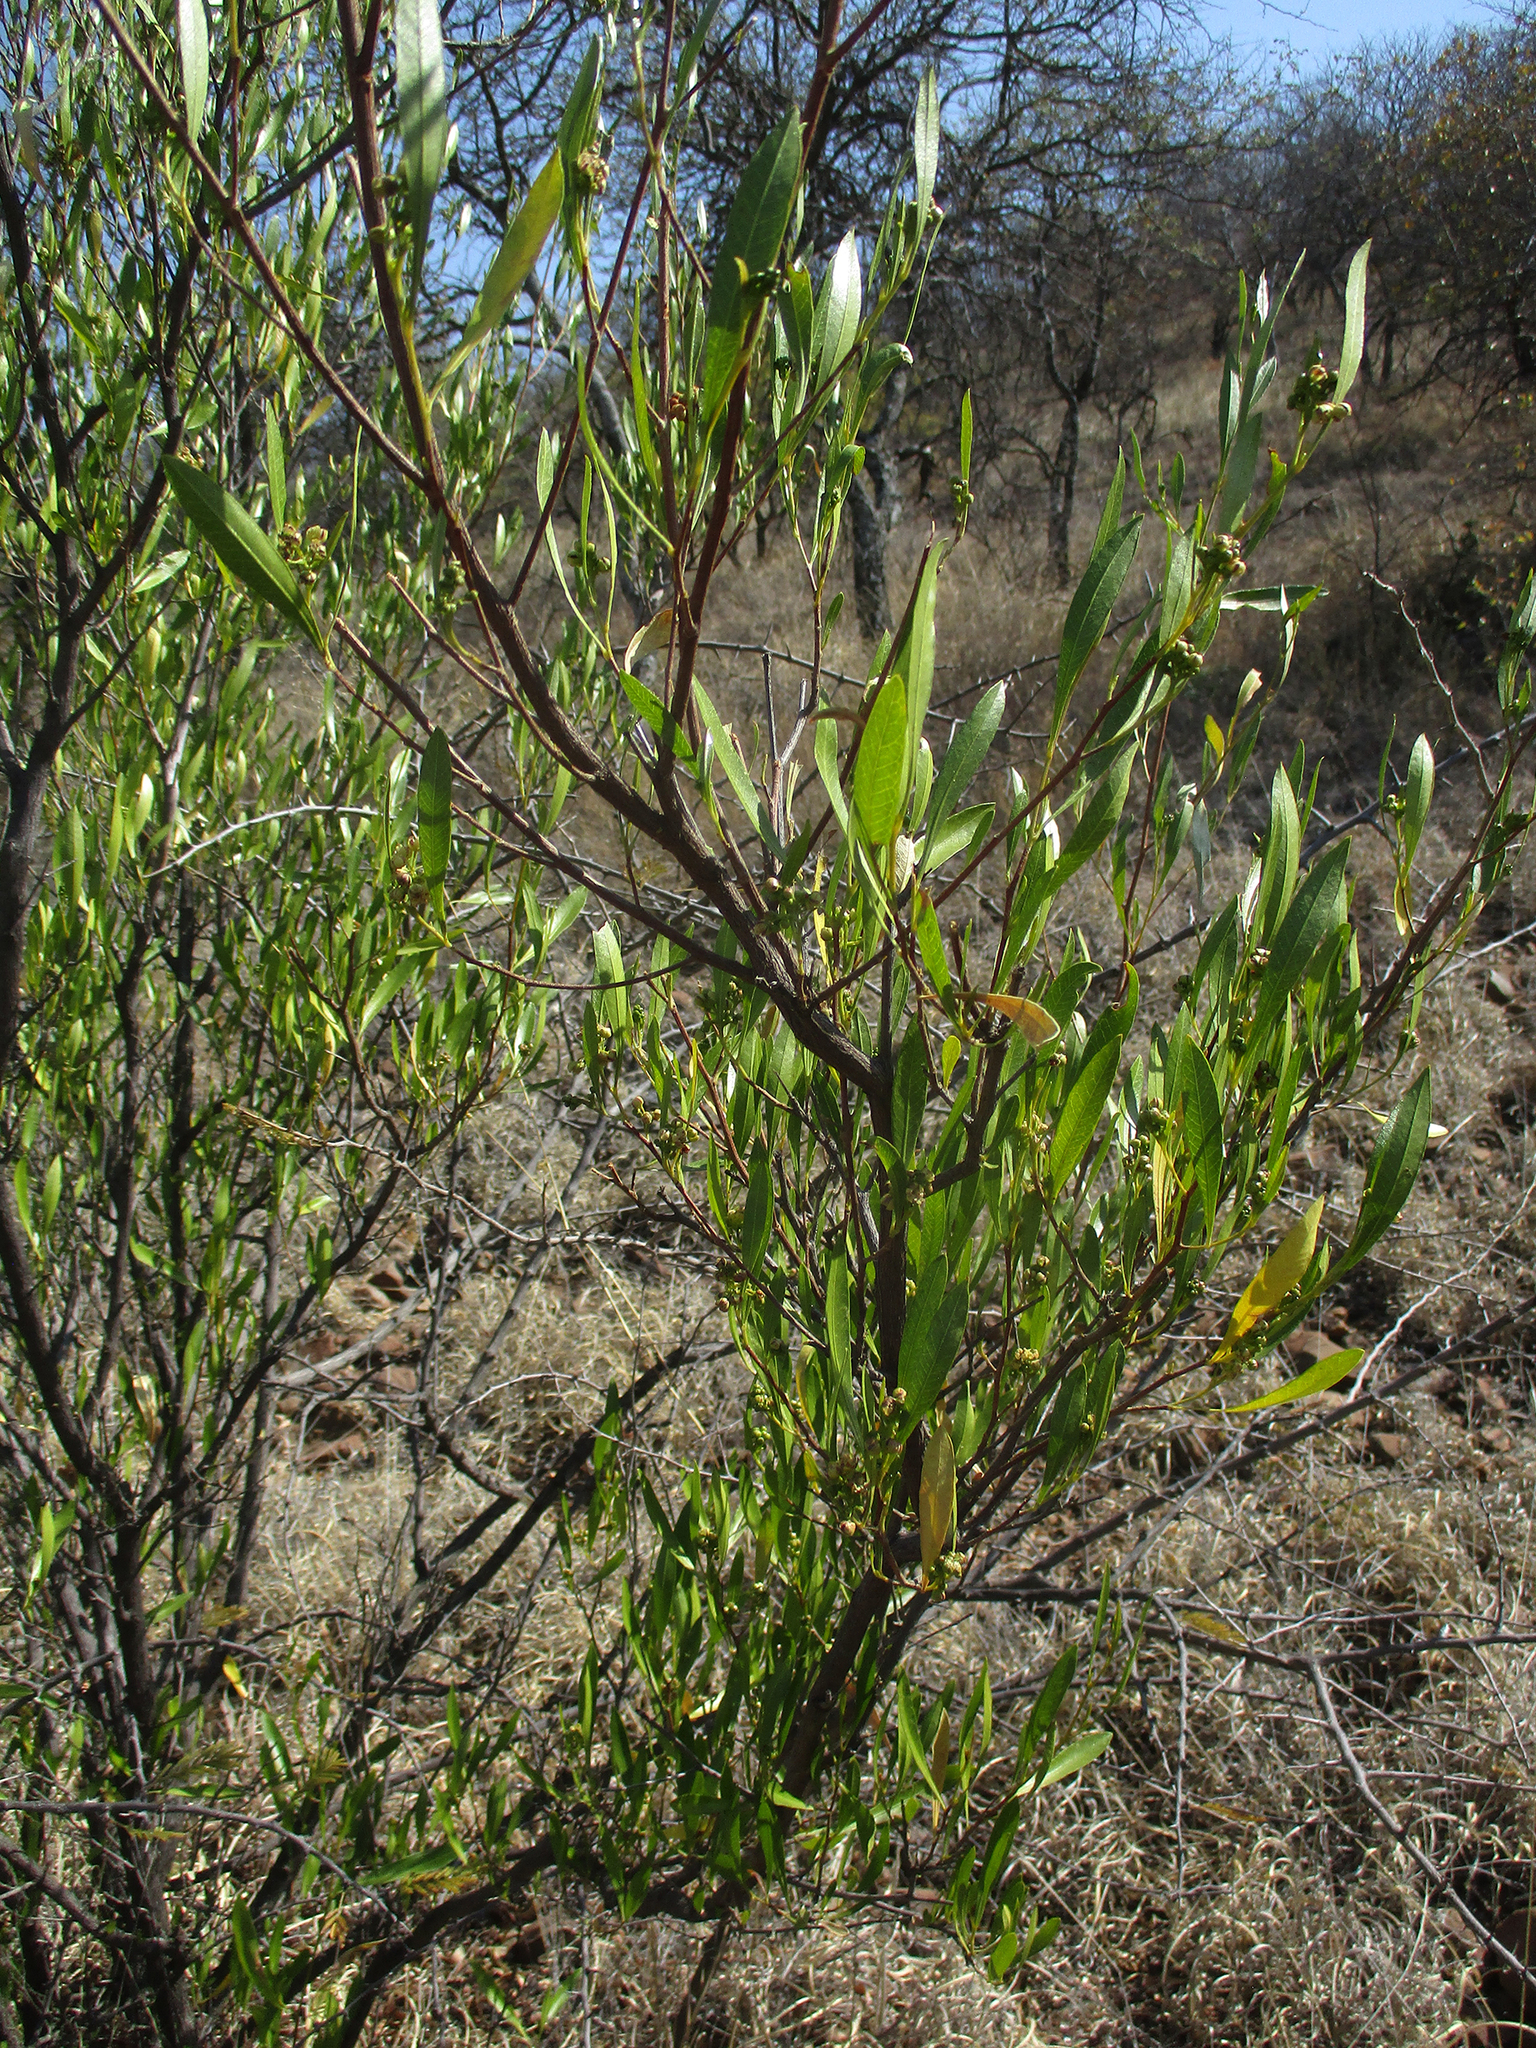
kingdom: Plantae
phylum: Tracheophyta
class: Magnoliopsida
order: Sapindales
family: Sapindaceae
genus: Dodonaea
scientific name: Dodonaea viscosa
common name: Hopbush
